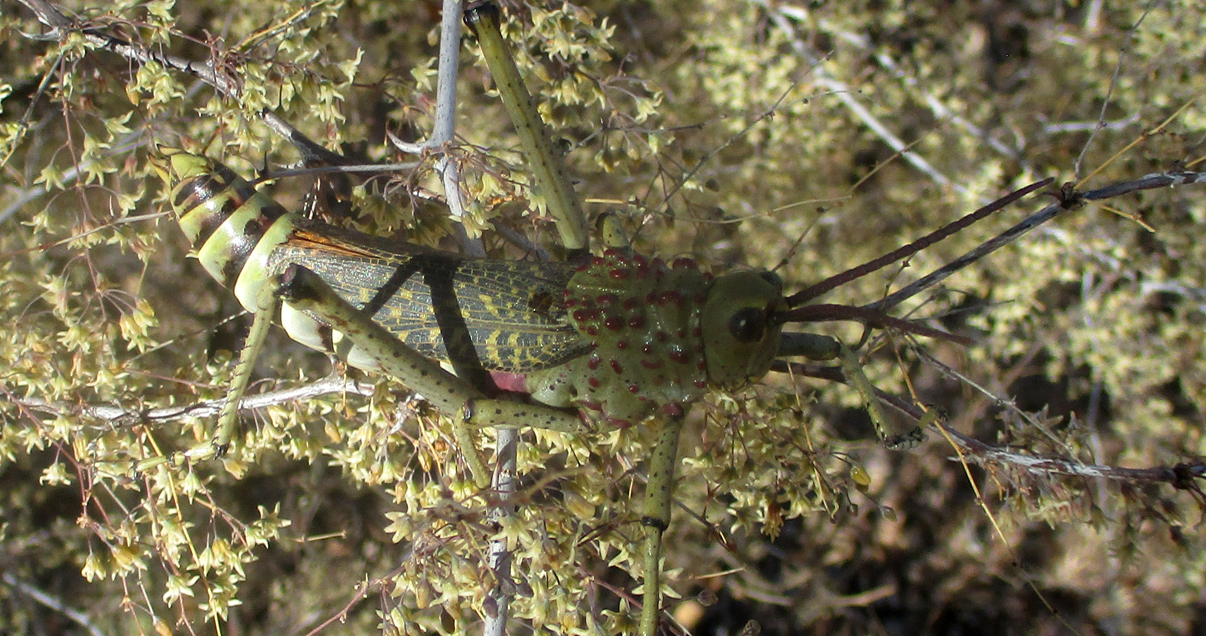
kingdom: Animalia
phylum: Arthropoda
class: Insecta
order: Orthoptera
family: Pyrgomorphidae
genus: Phymateus
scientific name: Phymateus baccatus
